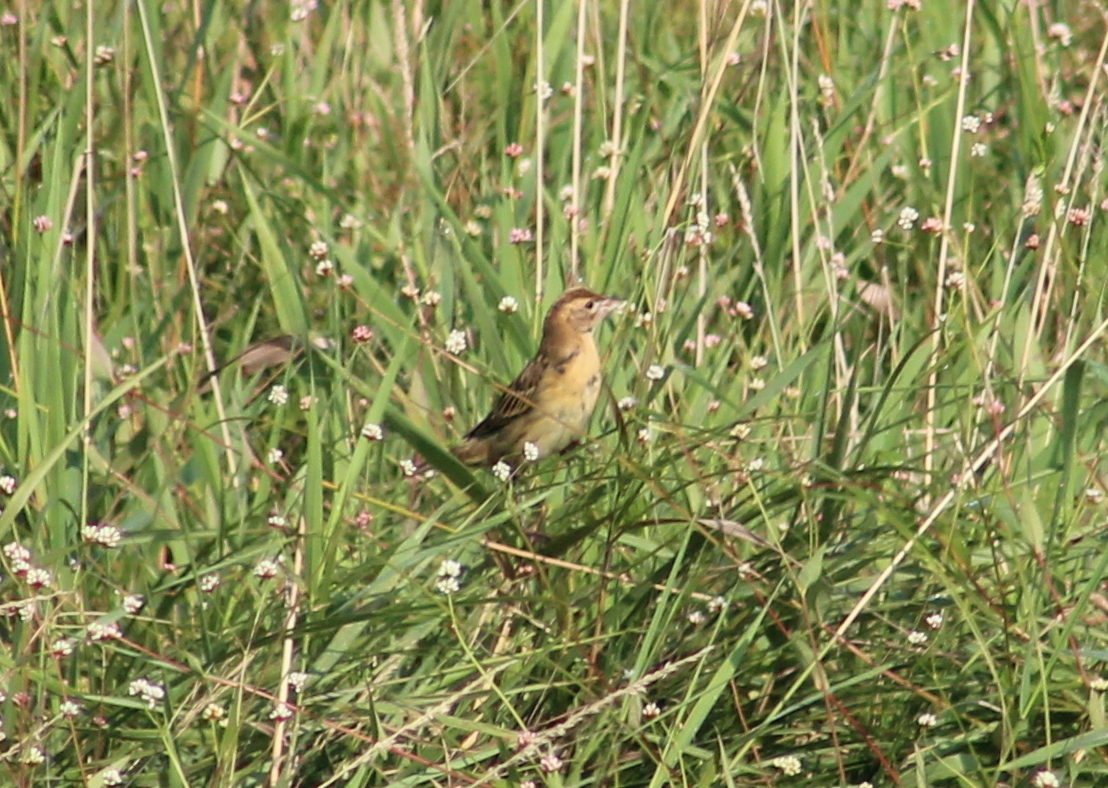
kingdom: Animalia
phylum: Chordata
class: Aves
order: Passeriformes
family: Icteridae
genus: Dolichonyx
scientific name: Dolichonyx oryzivorus
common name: Bobolink
